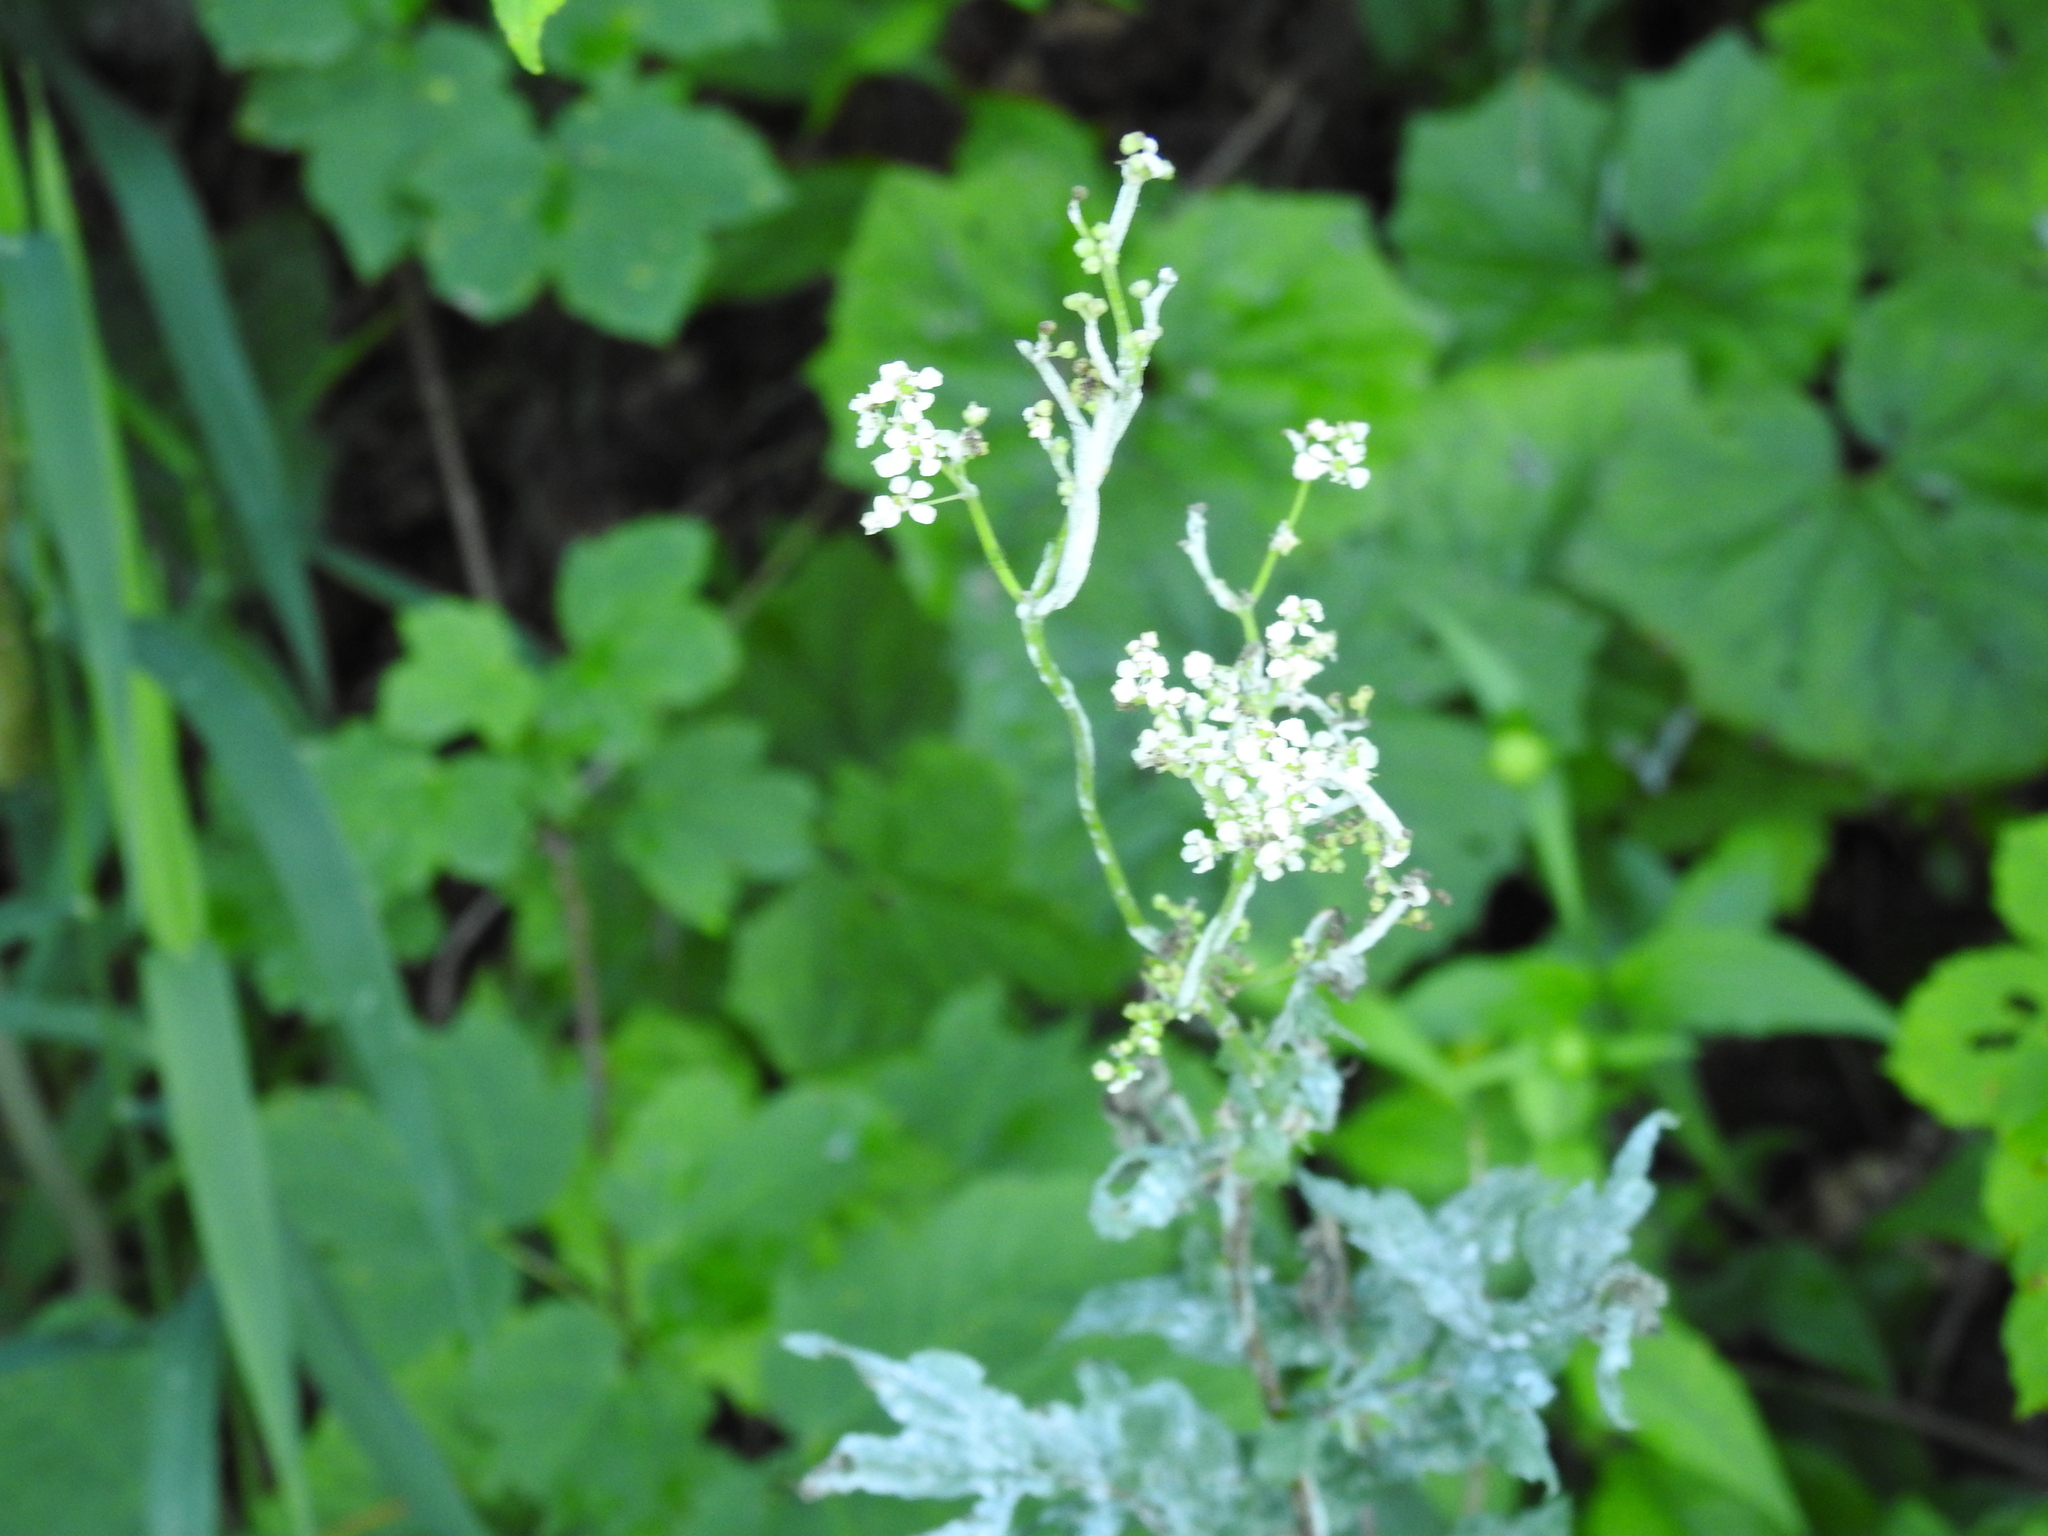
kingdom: Fungi
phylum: Ascomycota
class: Leotiomycetes
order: Helotiales
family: Erysiphaceae
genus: Podosphaera
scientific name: Podosphaera filipendulae
